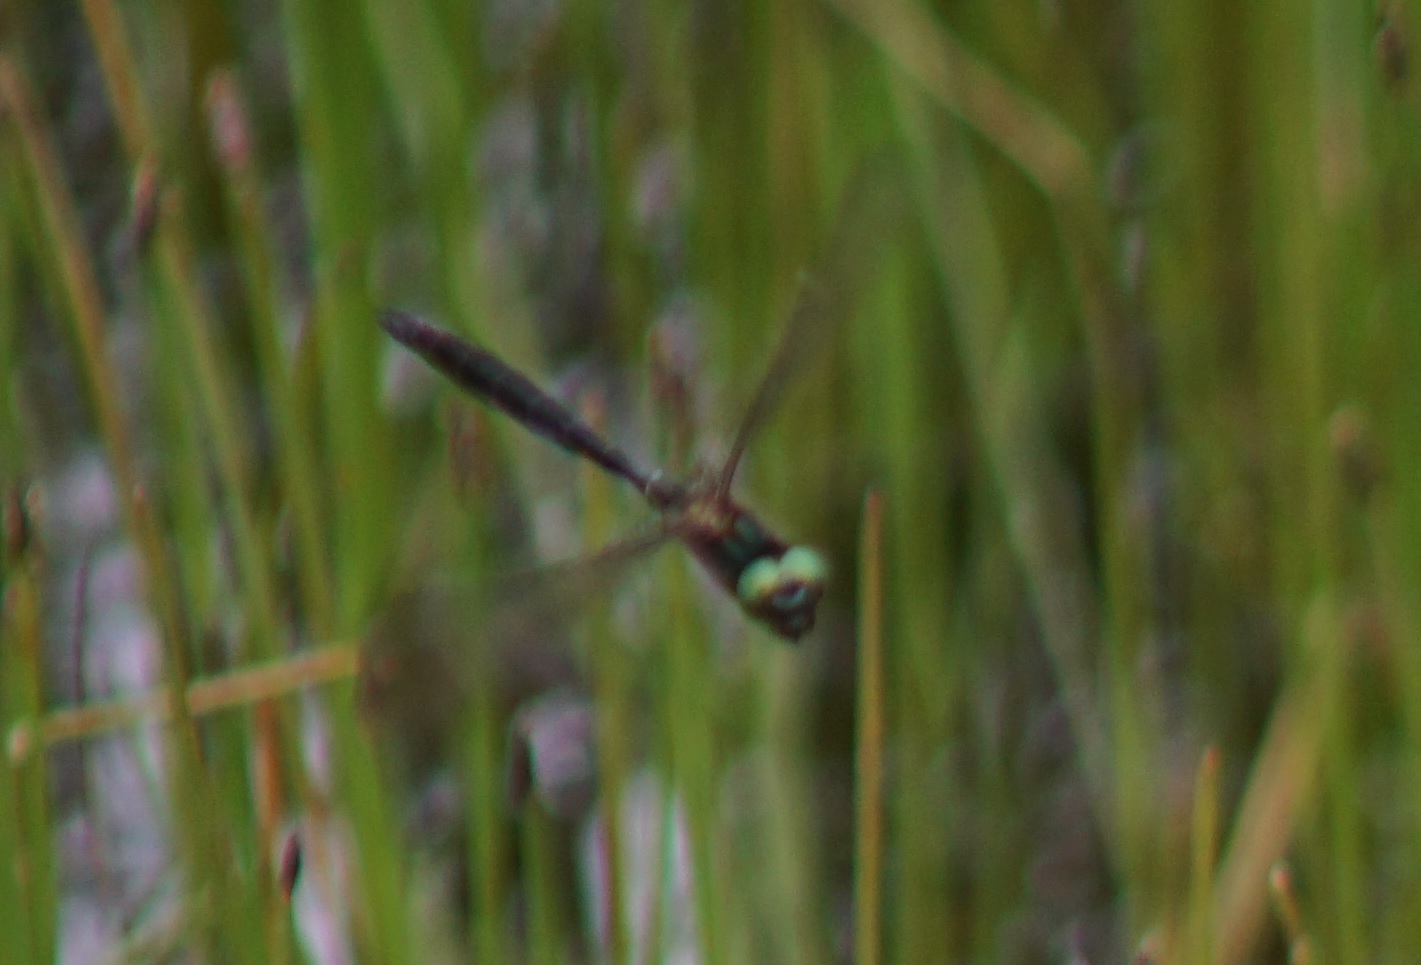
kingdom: Animalia
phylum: Arthropoda
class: Insecta
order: Odonata
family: Corduliidae
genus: Somatochlora
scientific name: Somatochlora alpestris
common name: Alpine emerald
